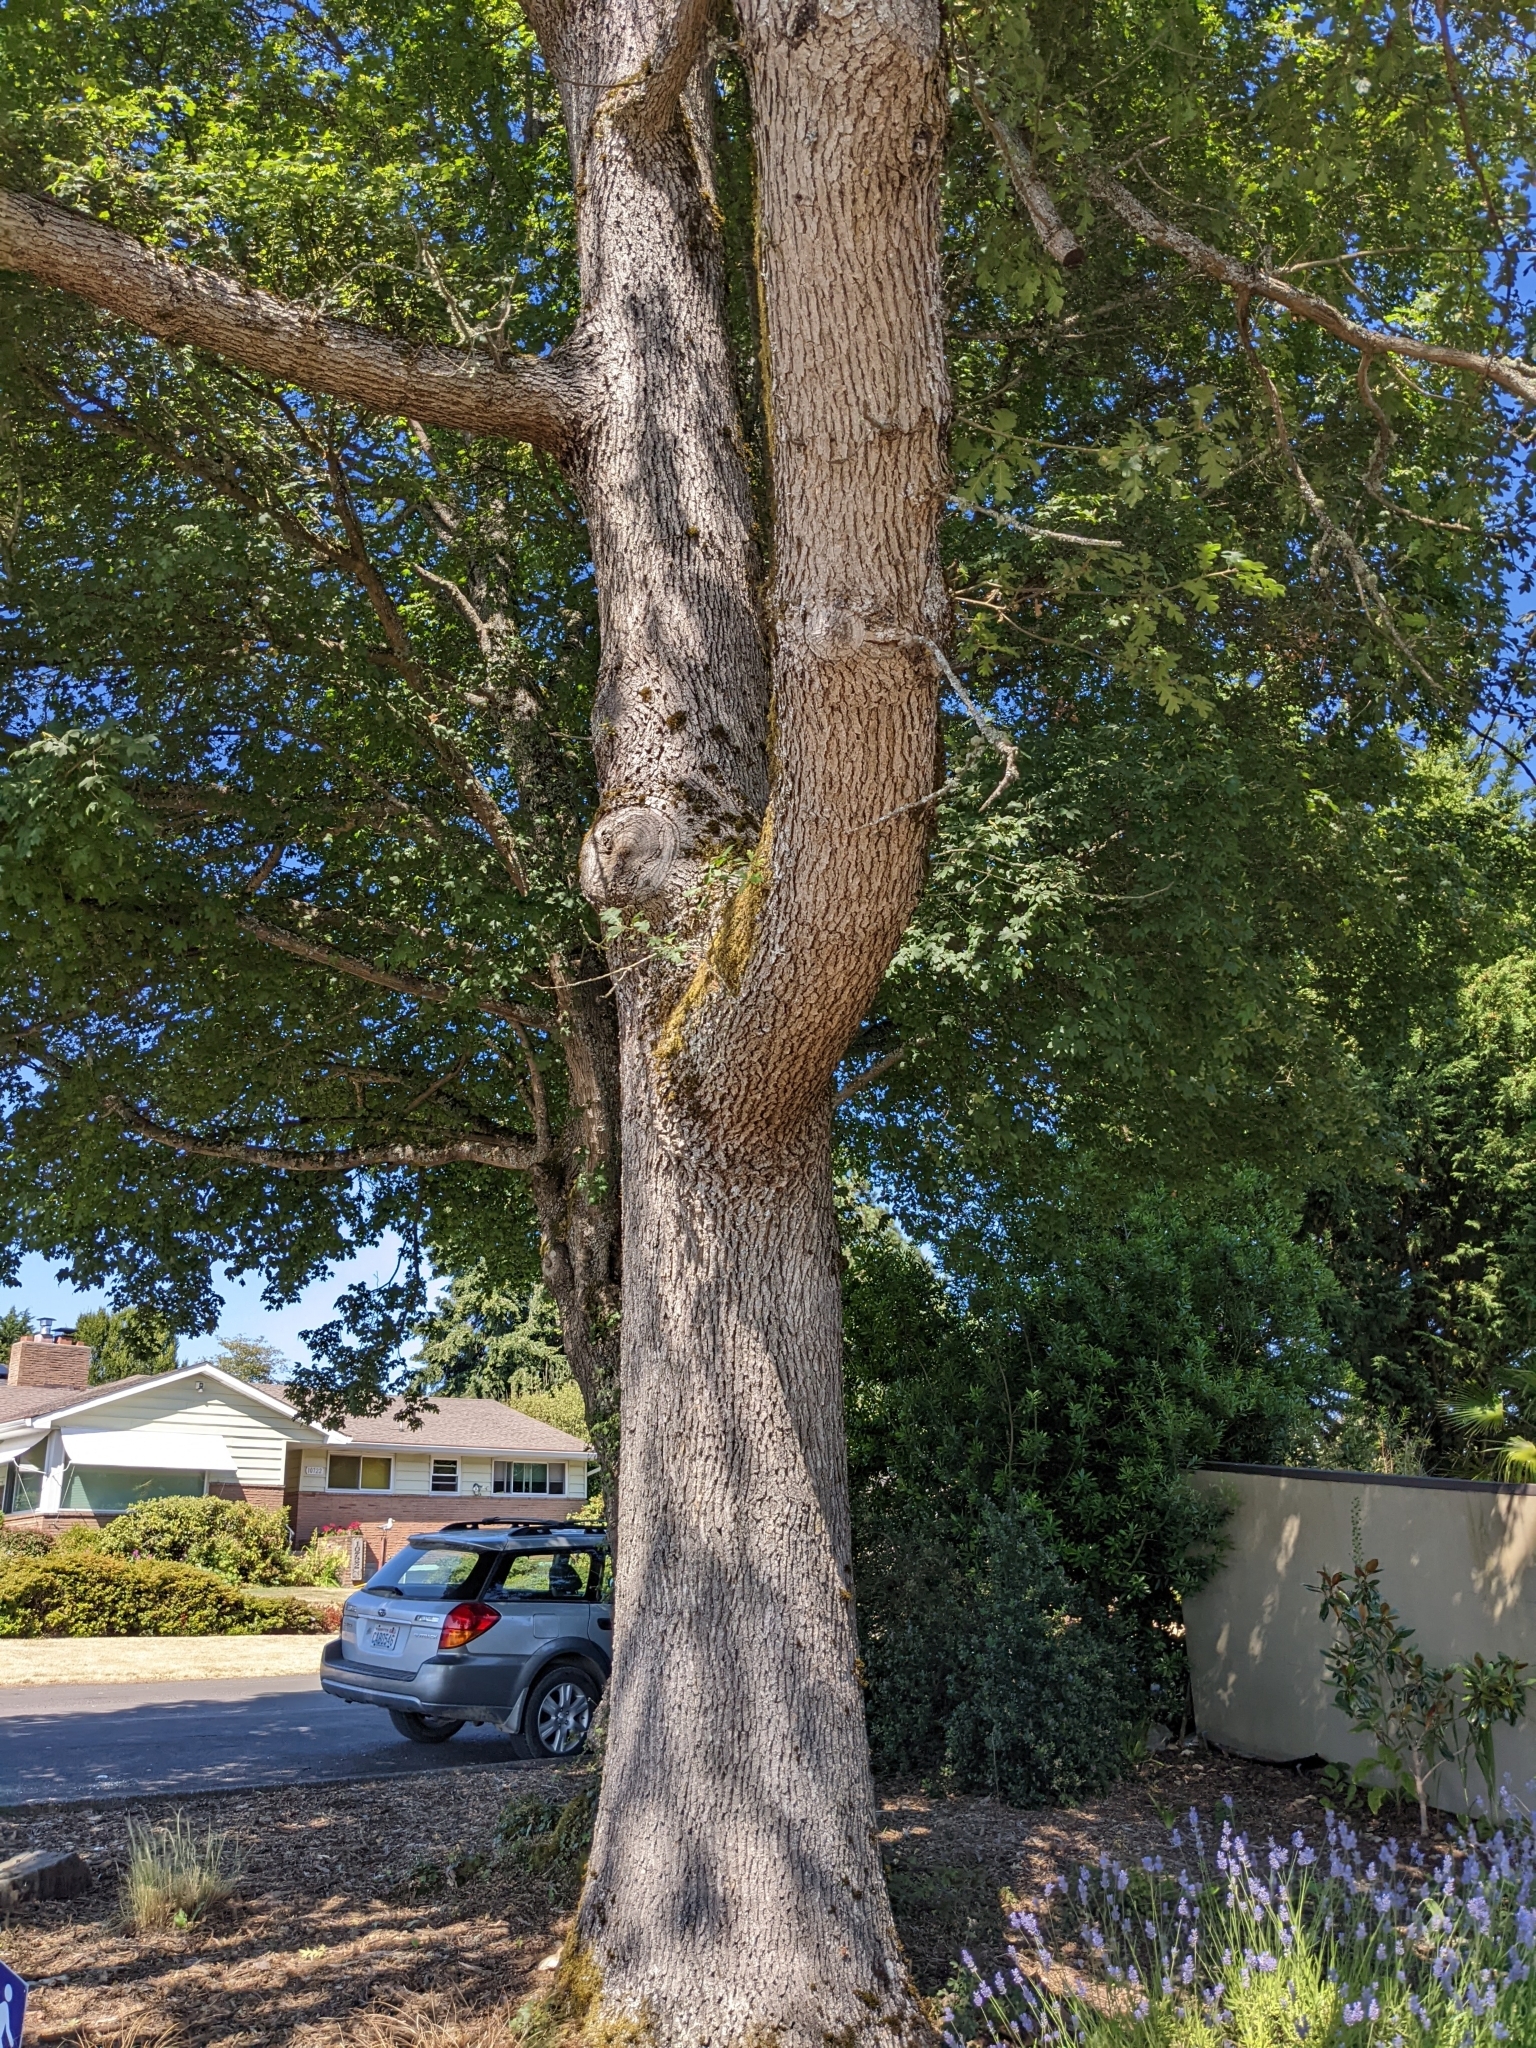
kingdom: Plantae
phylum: Tracheophyta
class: Magnoliopsida
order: Fagales
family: Fagaceae
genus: Quercus
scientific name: Quercus garryana
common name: Garry oak
